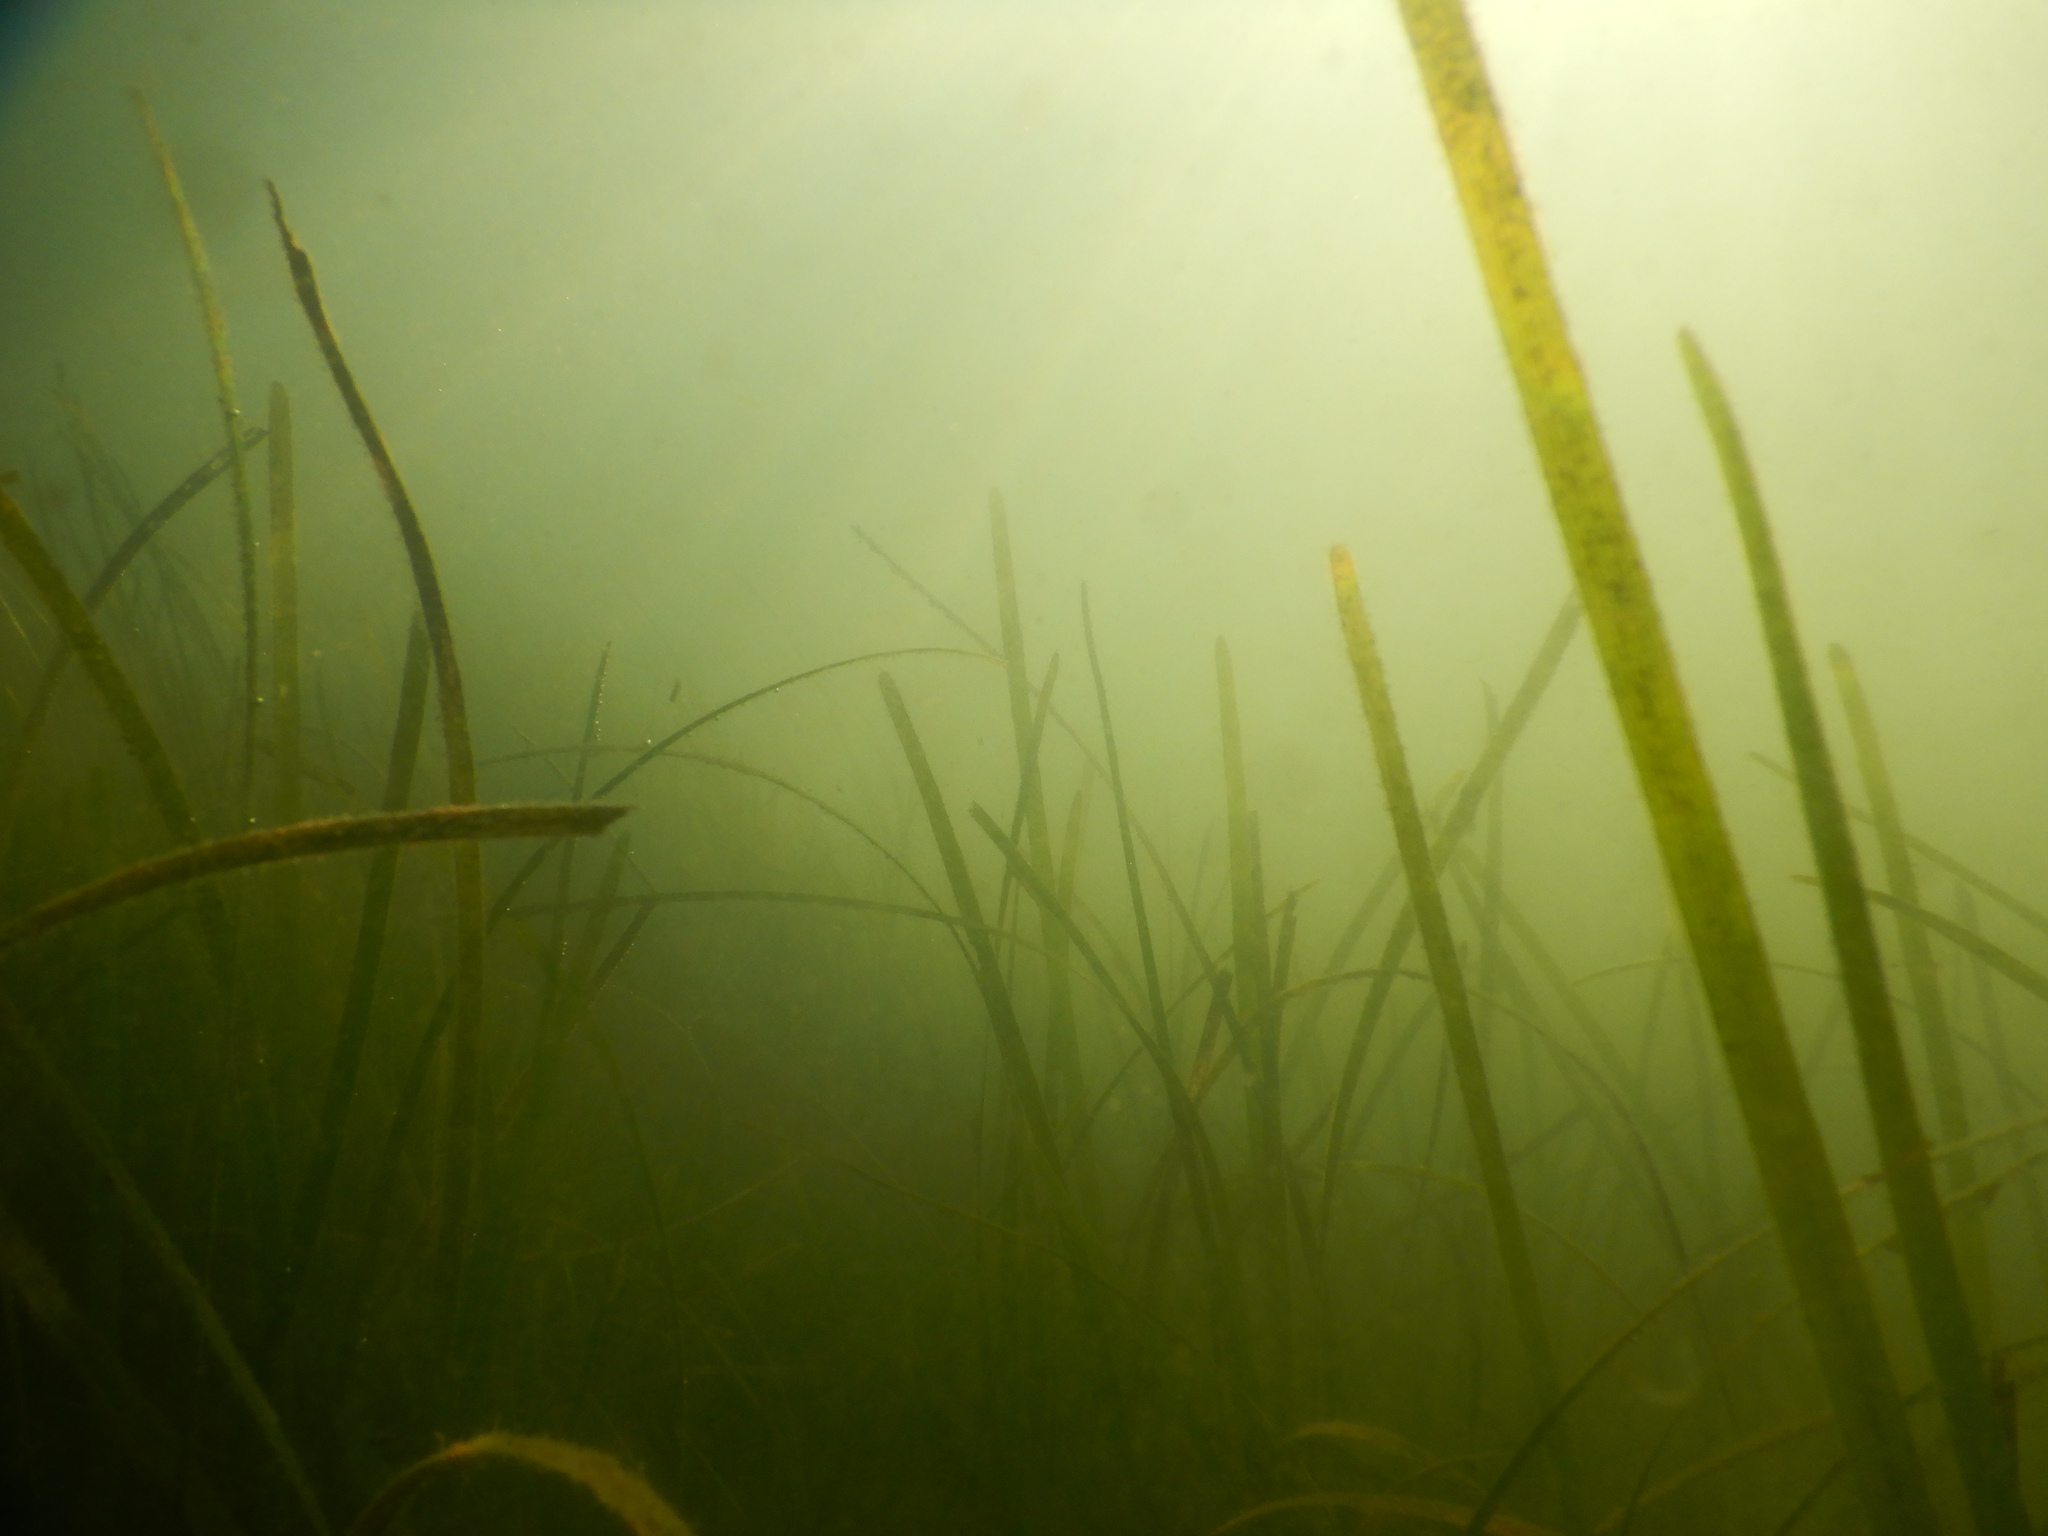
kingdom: Plantae
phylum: Tracheophyta
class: Liliopsida
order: Alismatales
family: Cymodoceaceae
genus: Cymodocea
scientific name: Cymodocea nodosa
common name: Slender seagrass
